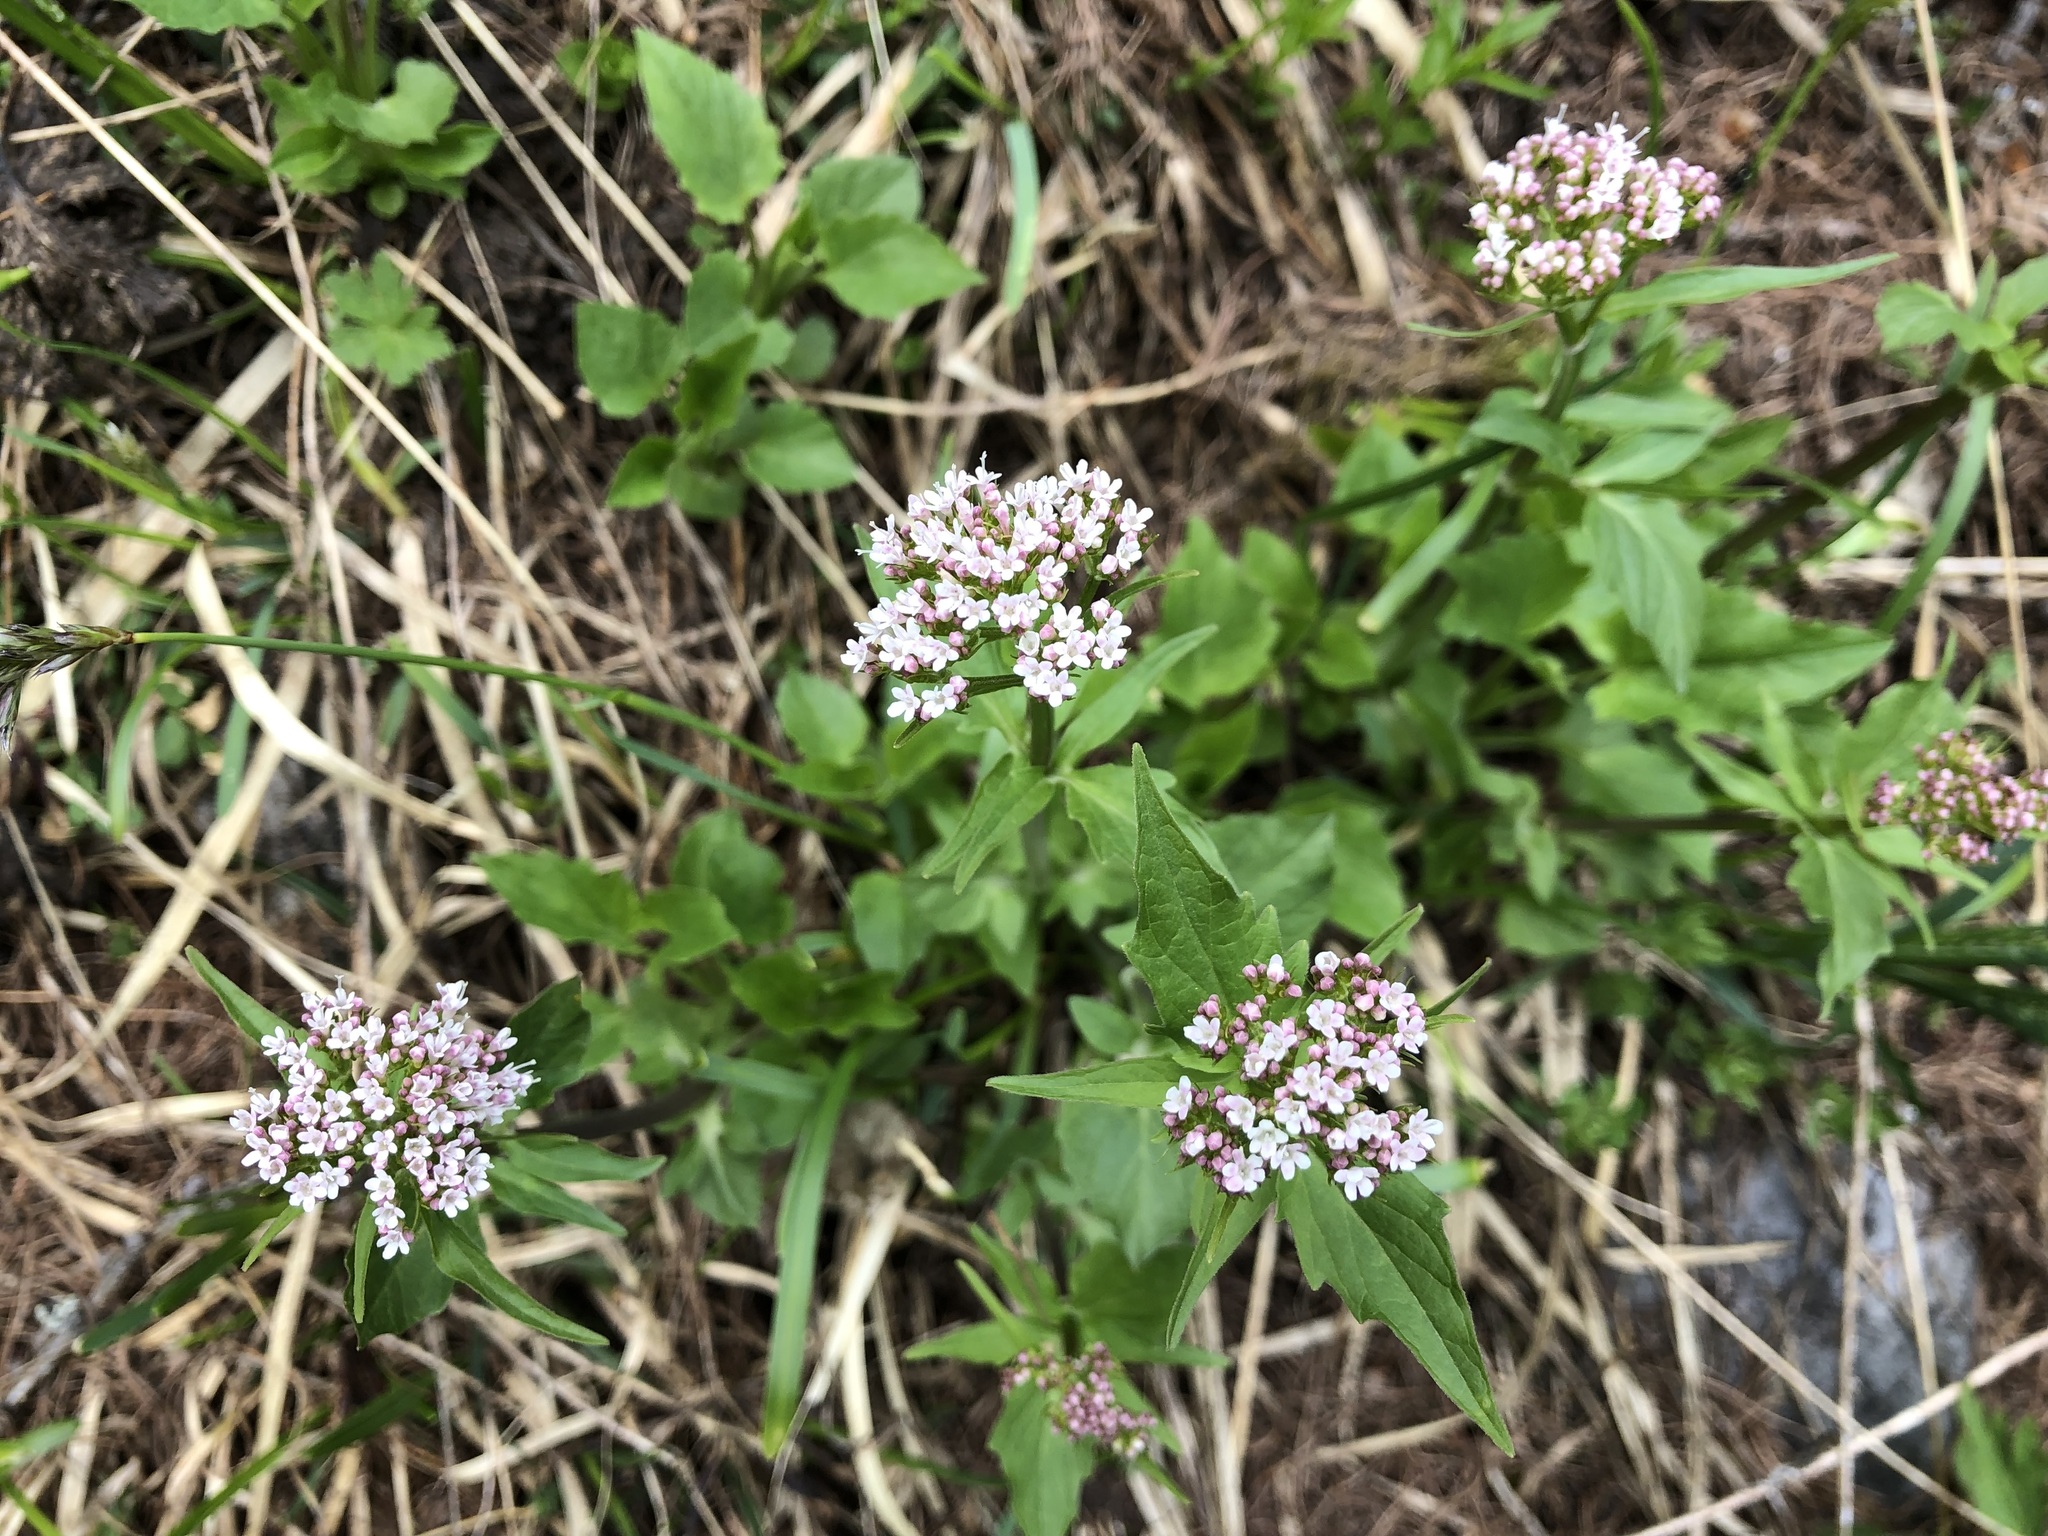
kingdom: Plantae
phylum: Tracheophyta
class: Magnoliopsida
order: Dipsacales
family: Caprifoliaceae
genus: Valeriana
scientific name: Valeriana tripteris
